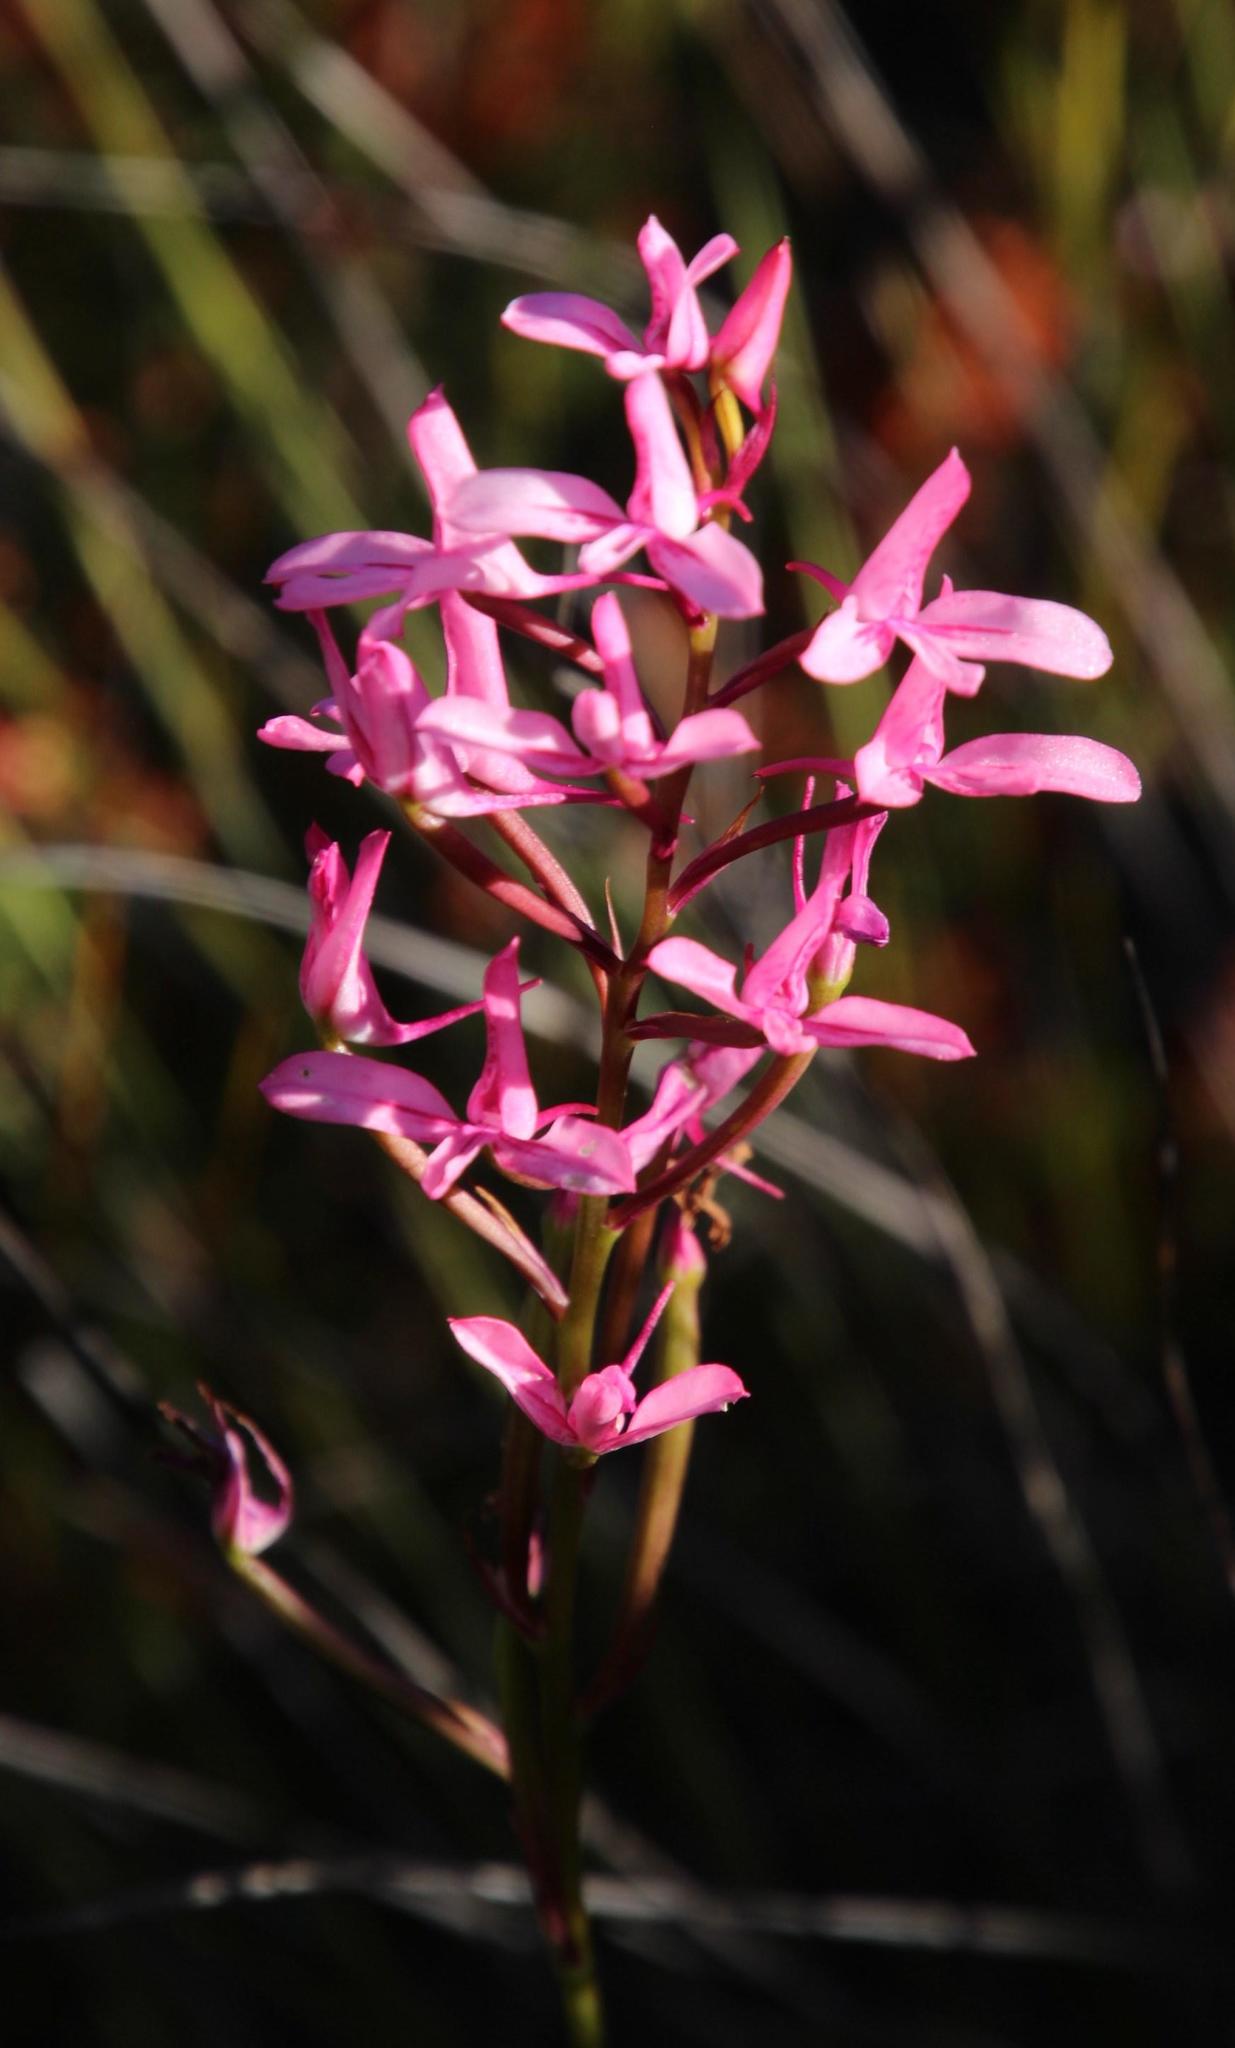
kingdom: Plantae
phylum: Tracheophyta
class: Liliopsida
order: Asparagales
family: Orchidaceae
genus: Disa
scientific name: Disa gladioliflora
